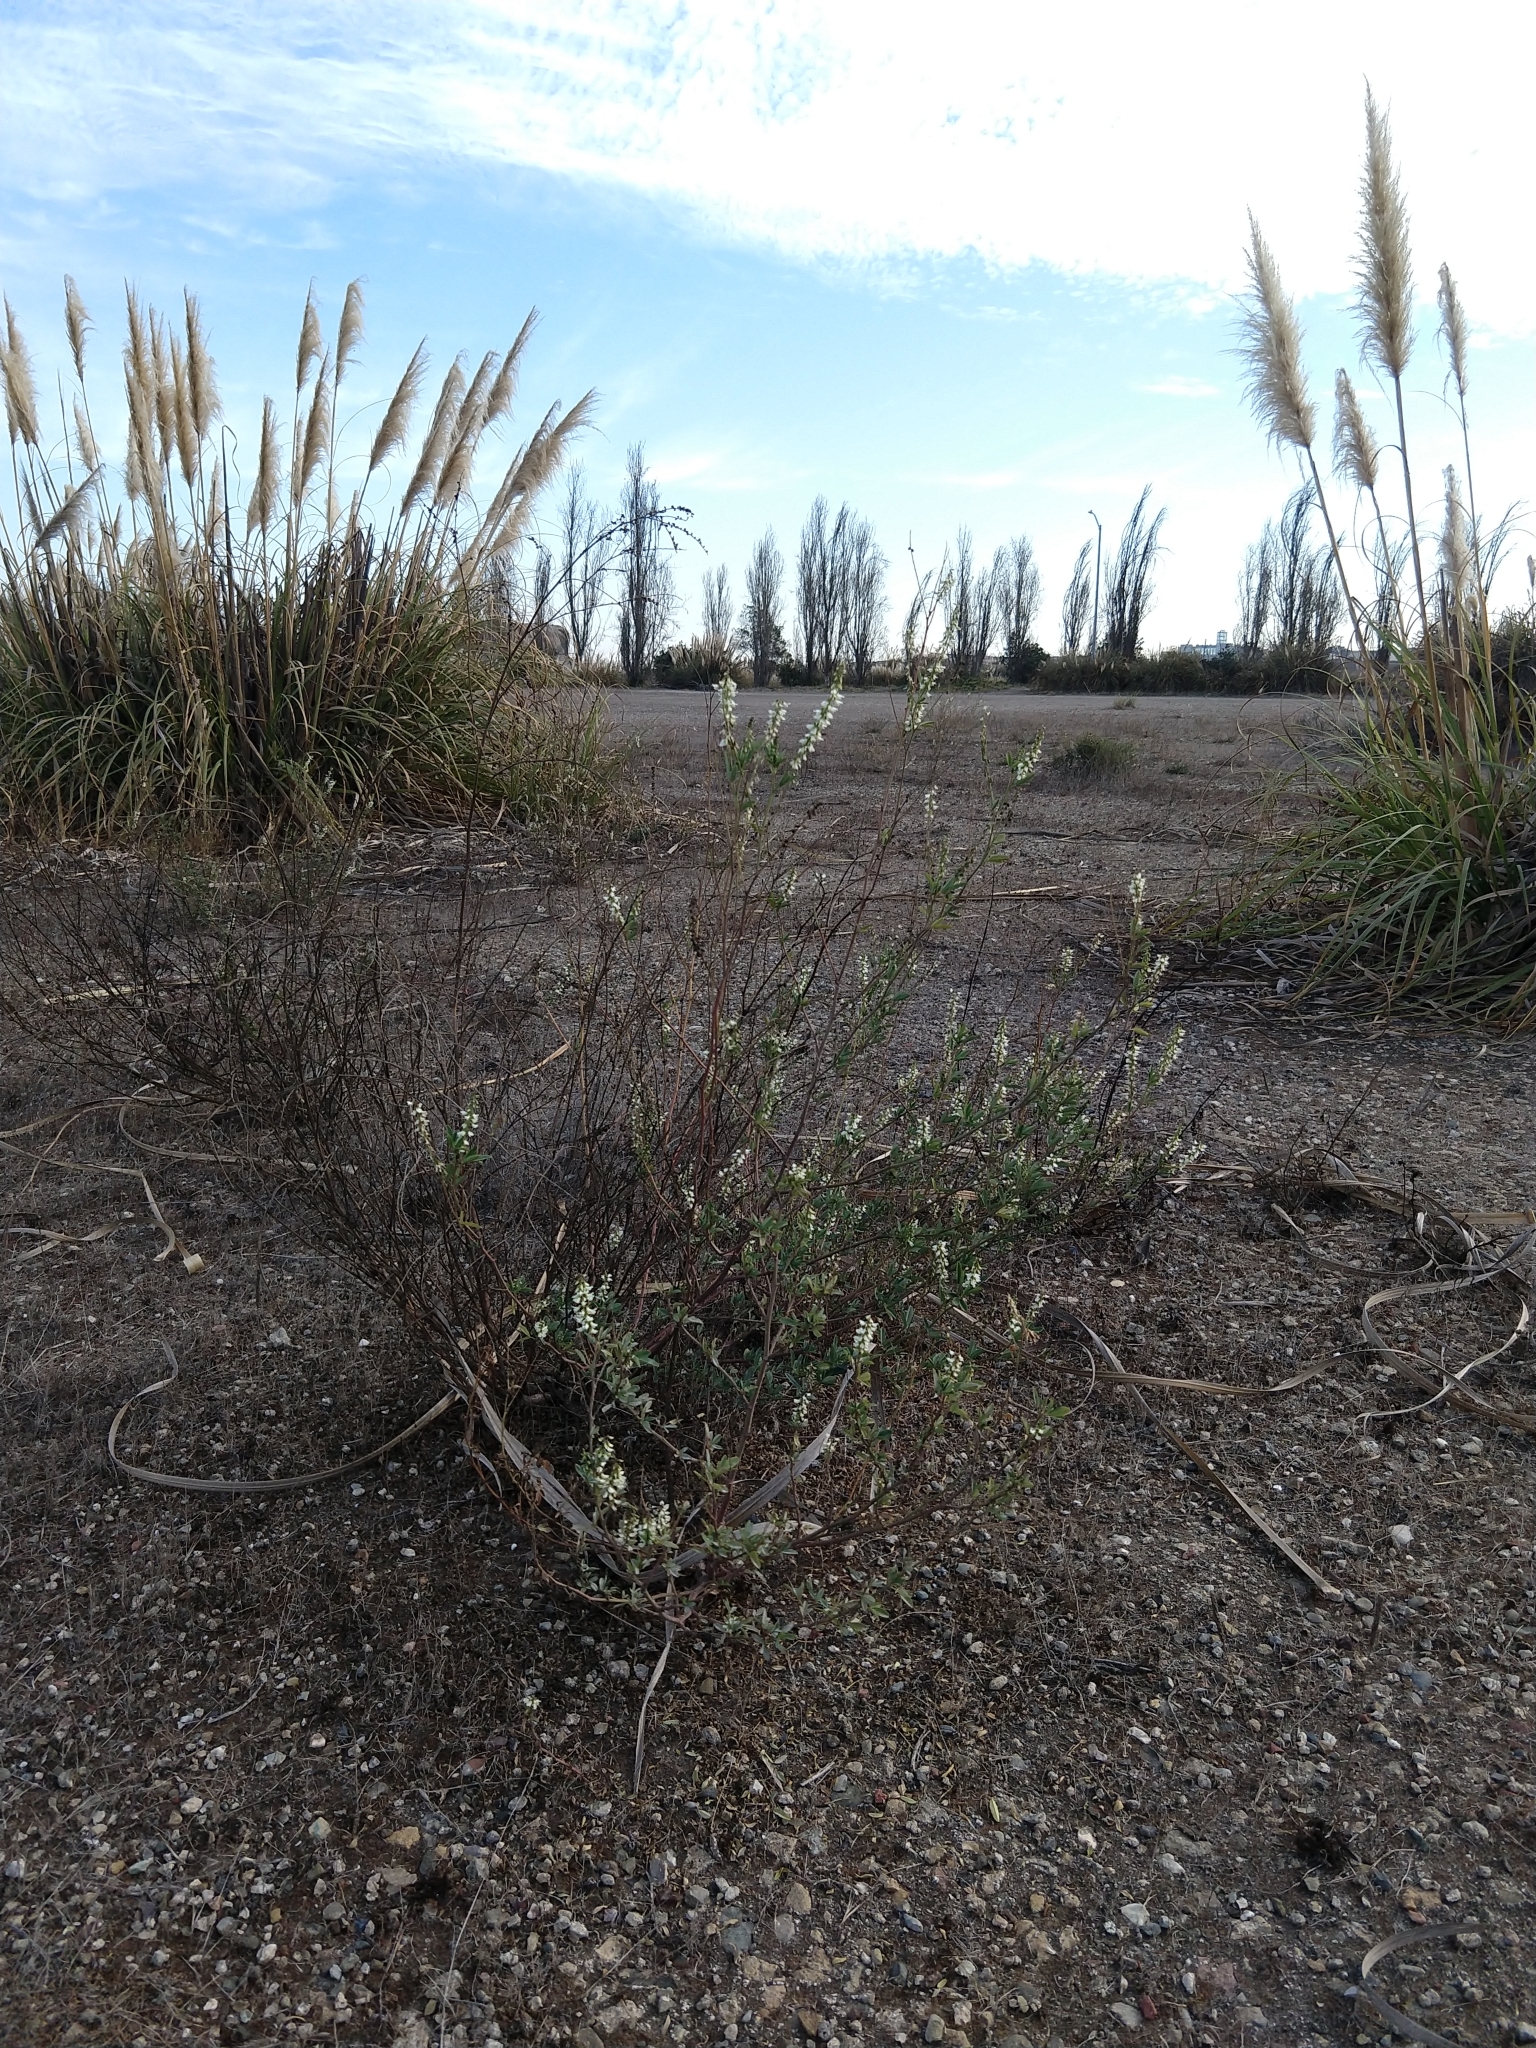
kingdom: Plantae
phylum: Tracheophyta
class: Magnoliopsida
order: Fabales
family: Fabaceae
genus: Melilotus
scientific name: Melilotus albus
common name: White melilot
